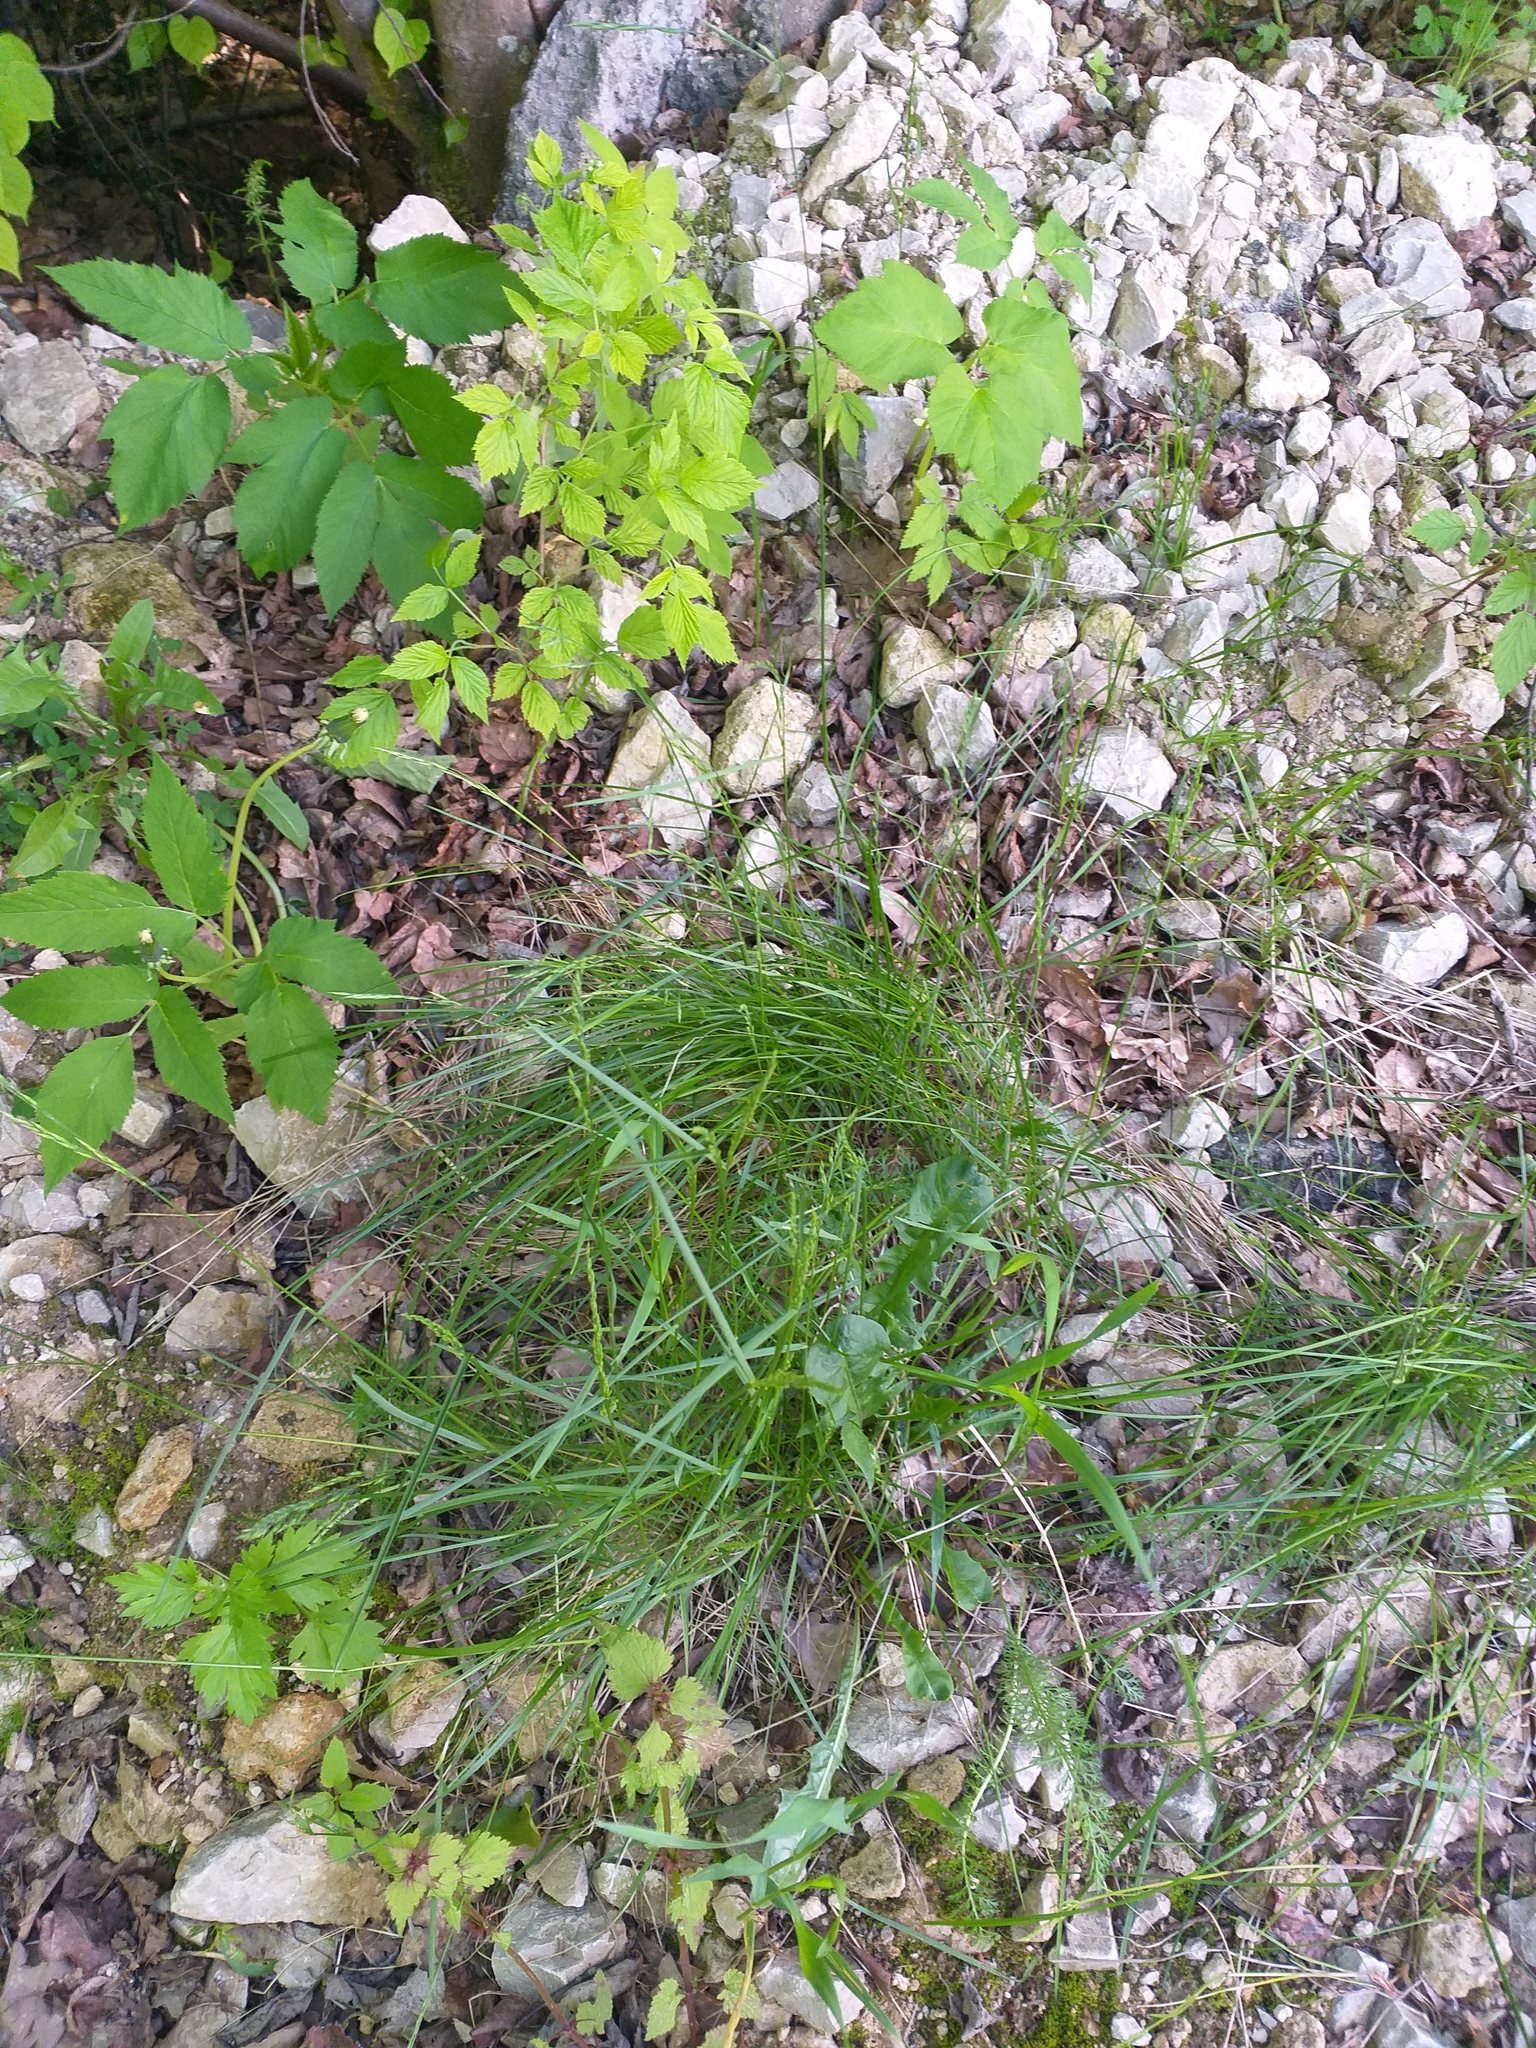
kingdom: Plantae
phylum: Tracheophyta
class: Liliopsida
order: Poales
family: Poaceae
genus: Festuca
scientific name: Festuca rubra
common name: Red fescue
